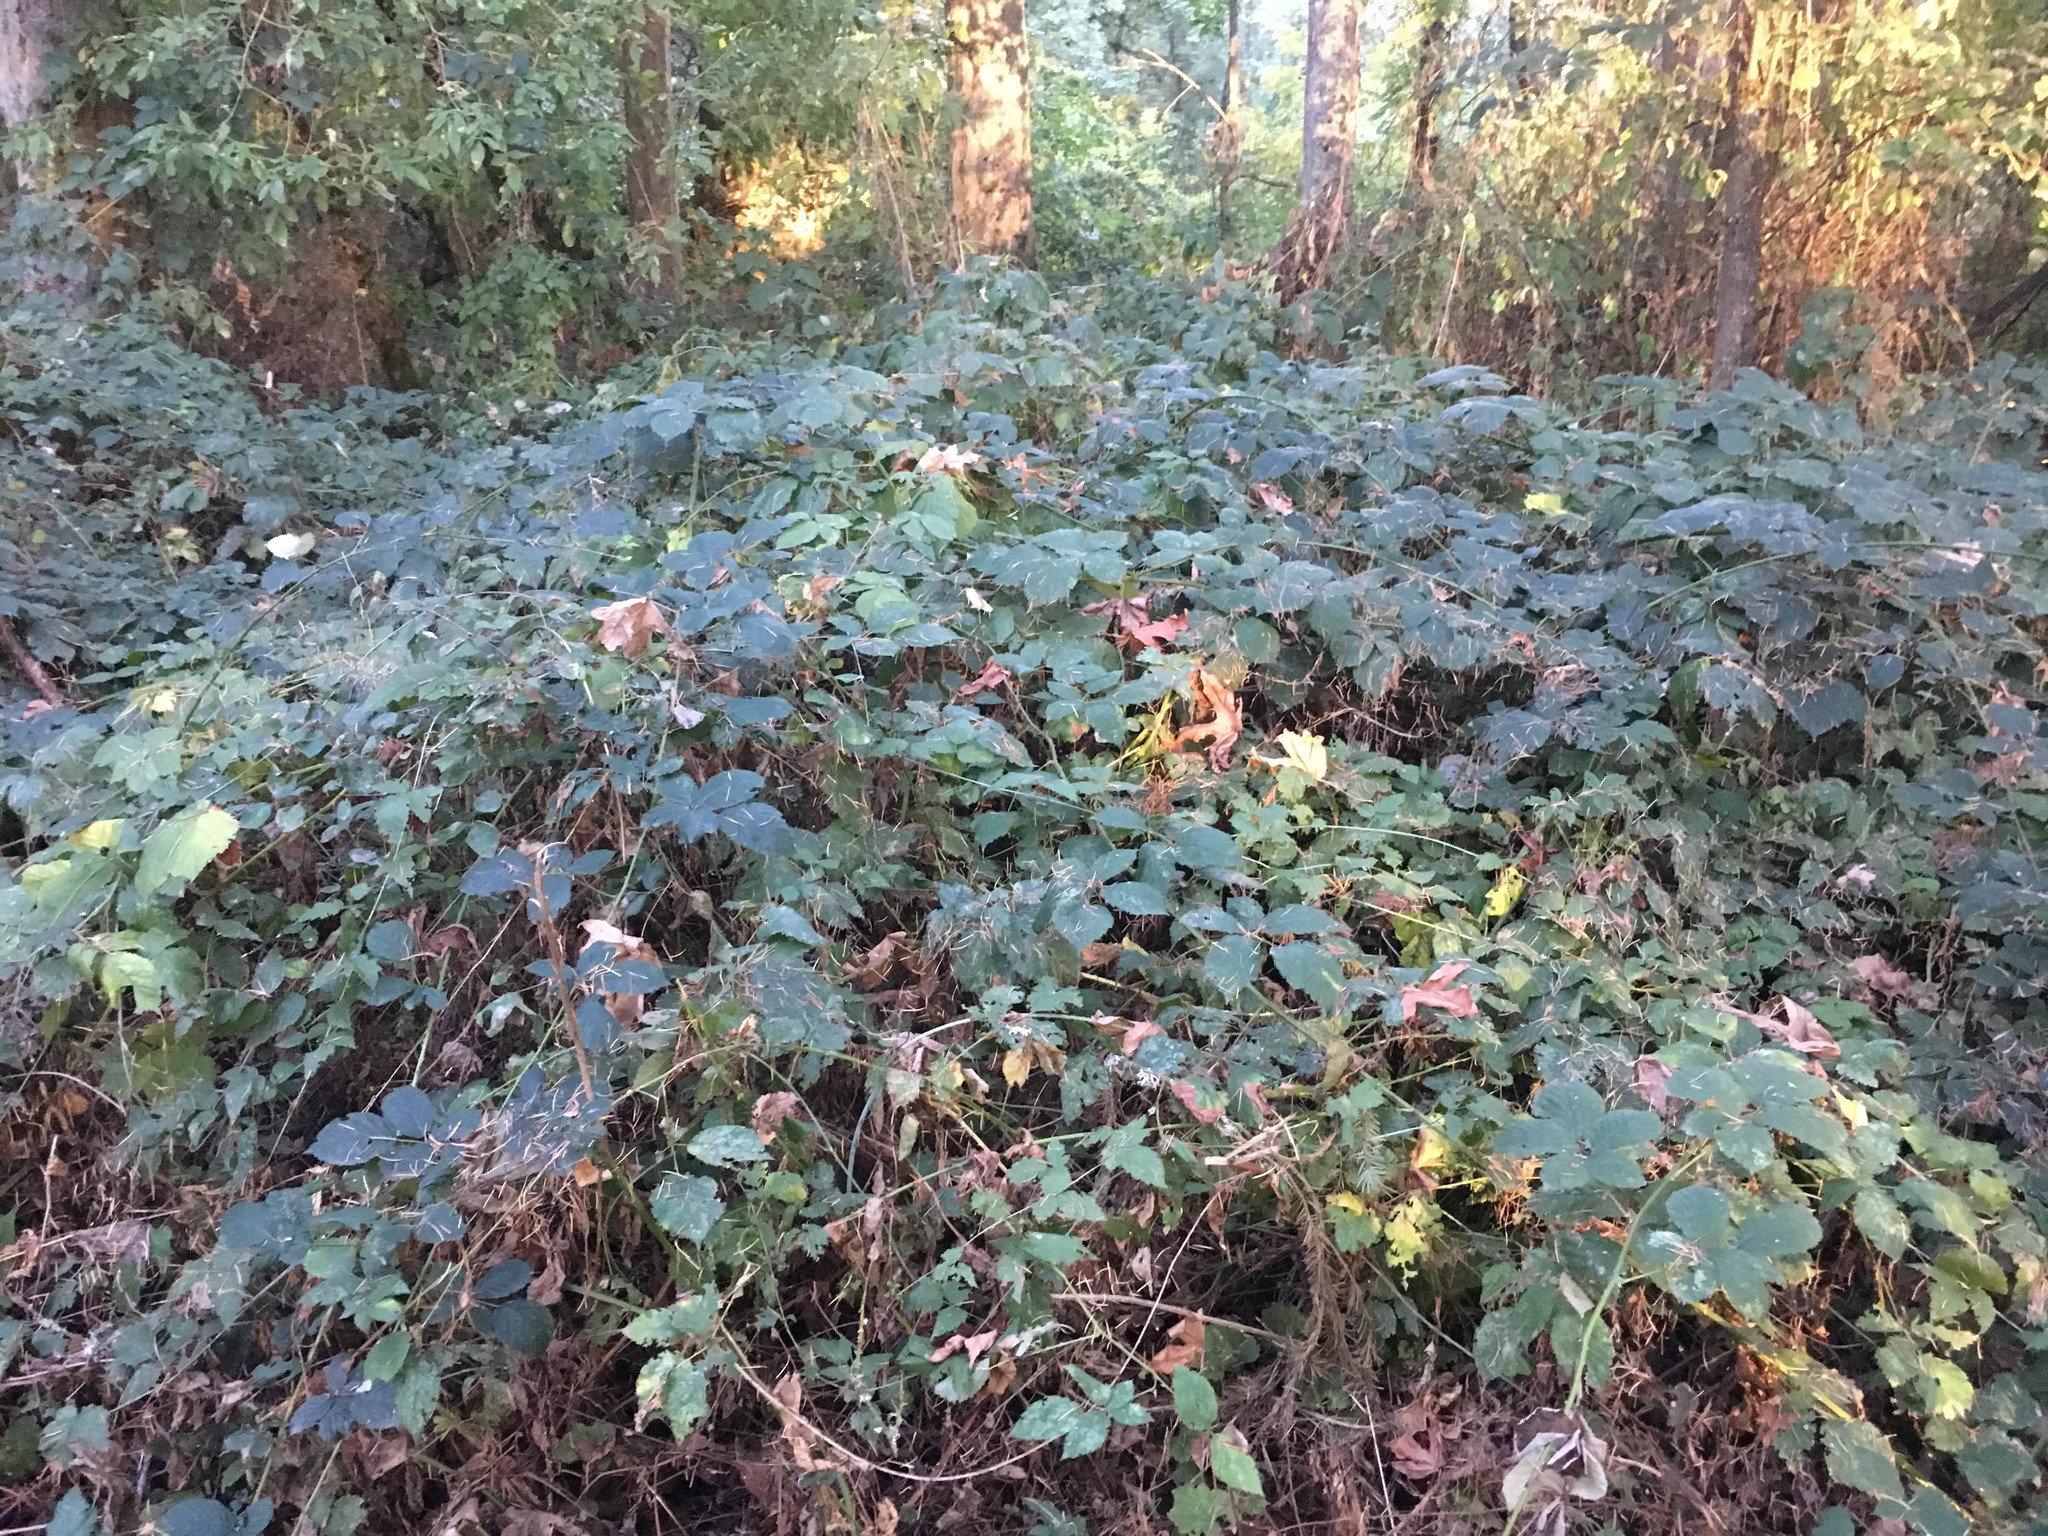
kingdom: Plantae
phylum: Tracheophyta
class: Magnoliopsida
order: Rosales
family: Rosaceae
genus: Rubus
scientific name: Rubus bifrons
